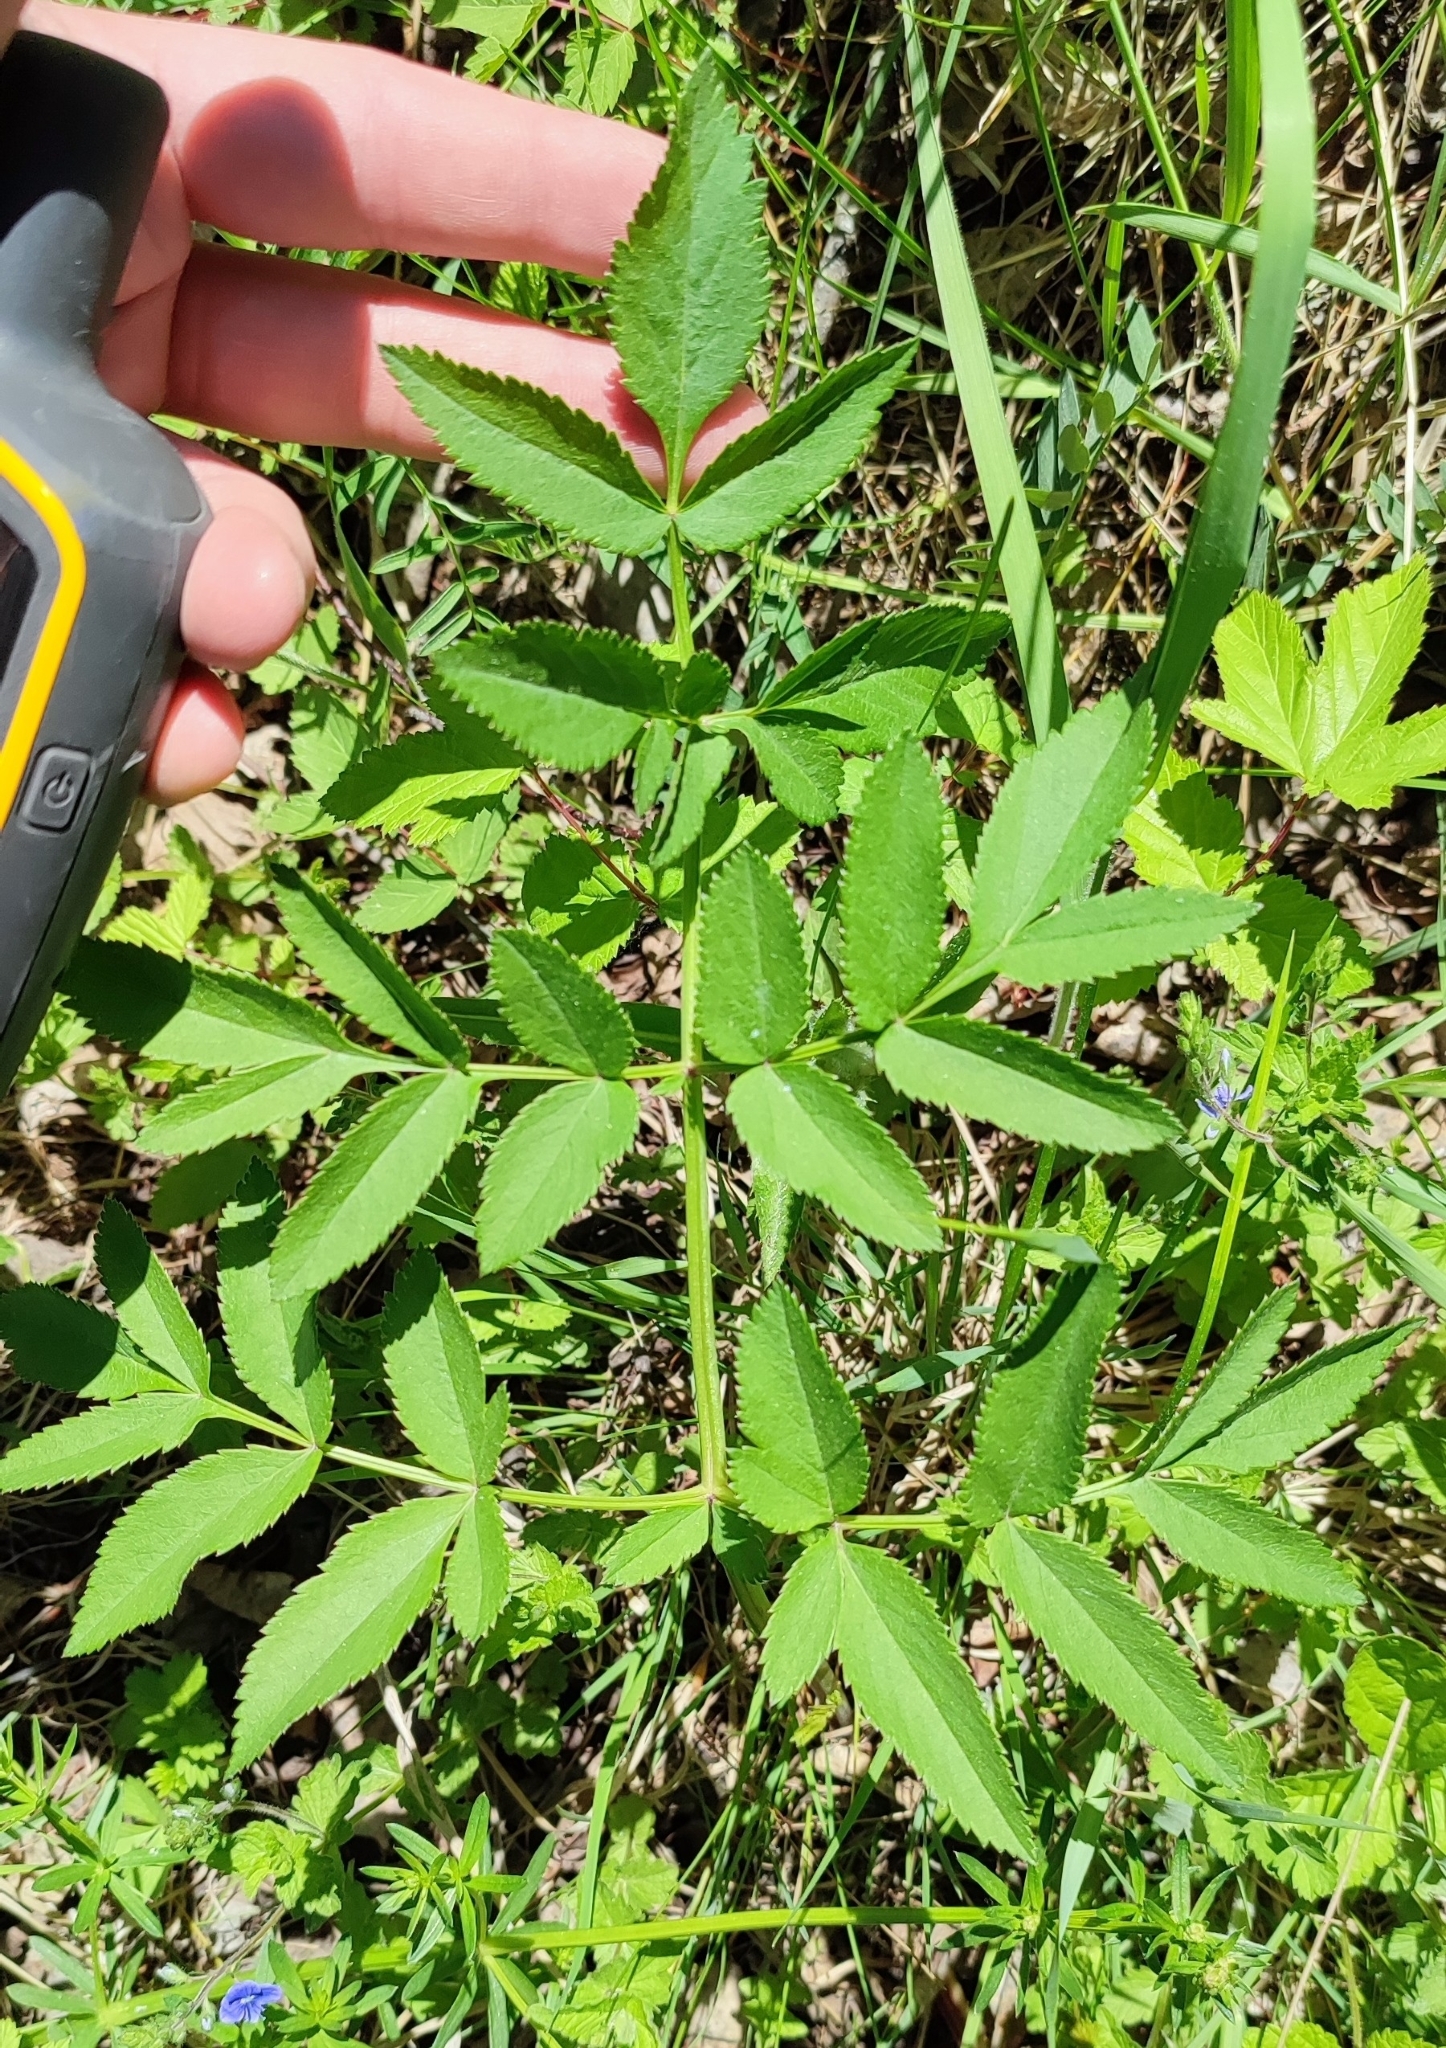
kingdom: Plantae
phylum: Tracheophyta
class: Magnoliopsida
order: Apiales
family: Apiaceae
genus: Angelica
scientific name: Angelica sylvestris
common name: Wild angelica
